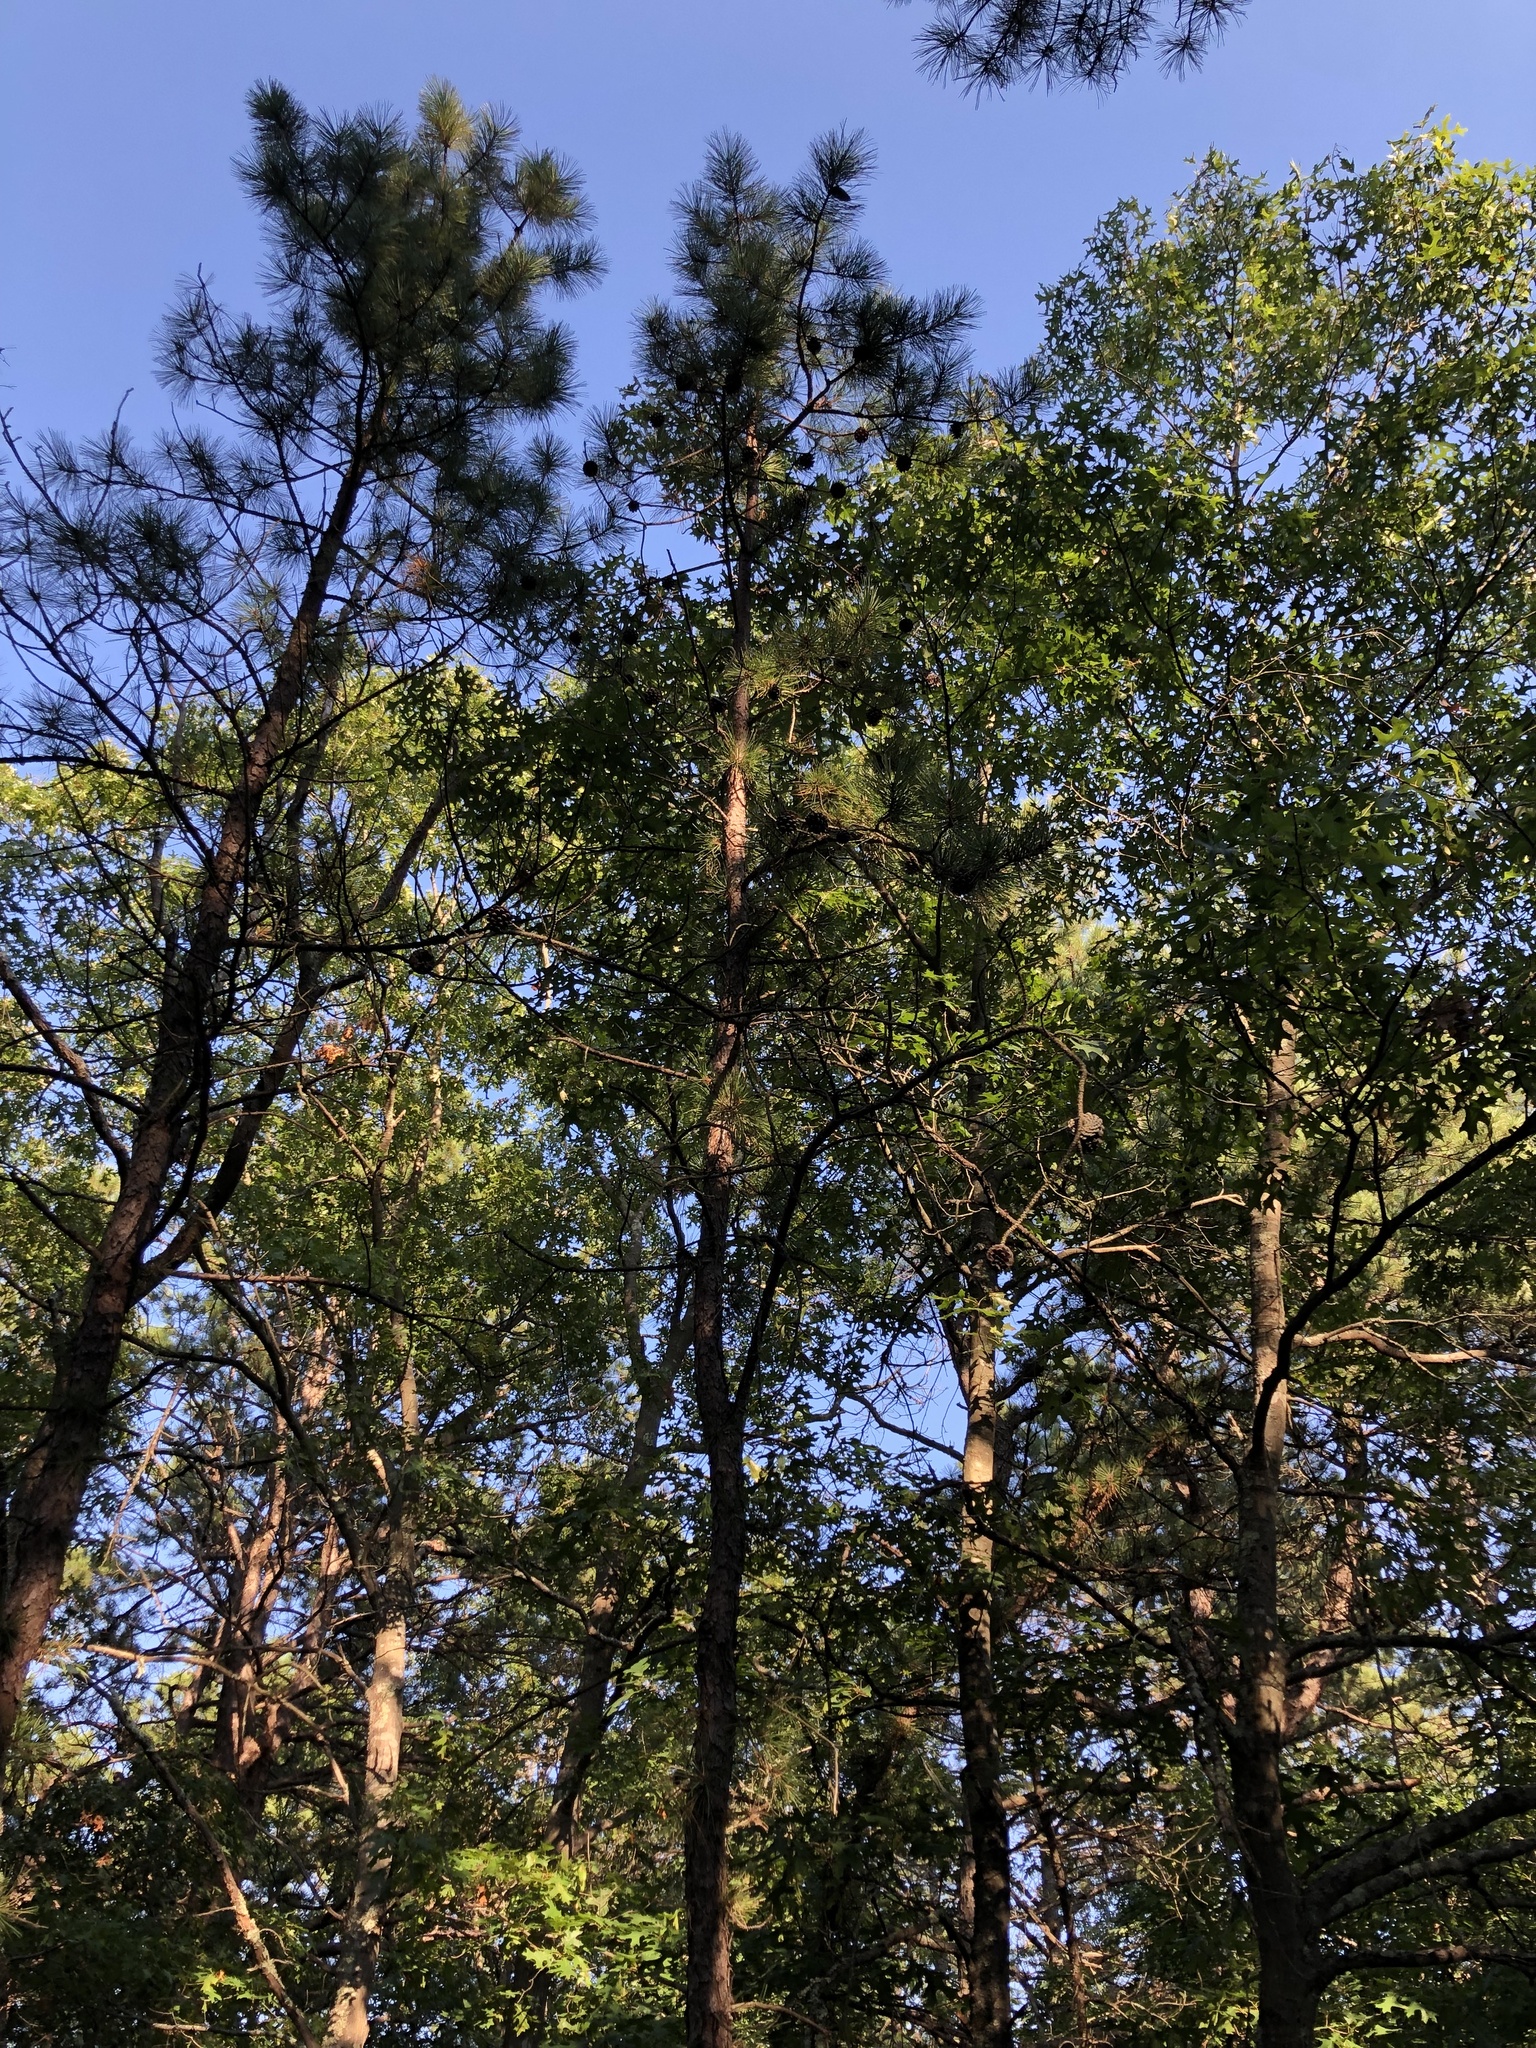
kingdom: Plantae
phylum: Tracheophyta
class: Pinopsida
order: Pinales
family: Pinaceae
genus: Pinus
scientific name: Pinus rigida
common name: Pitch pine
